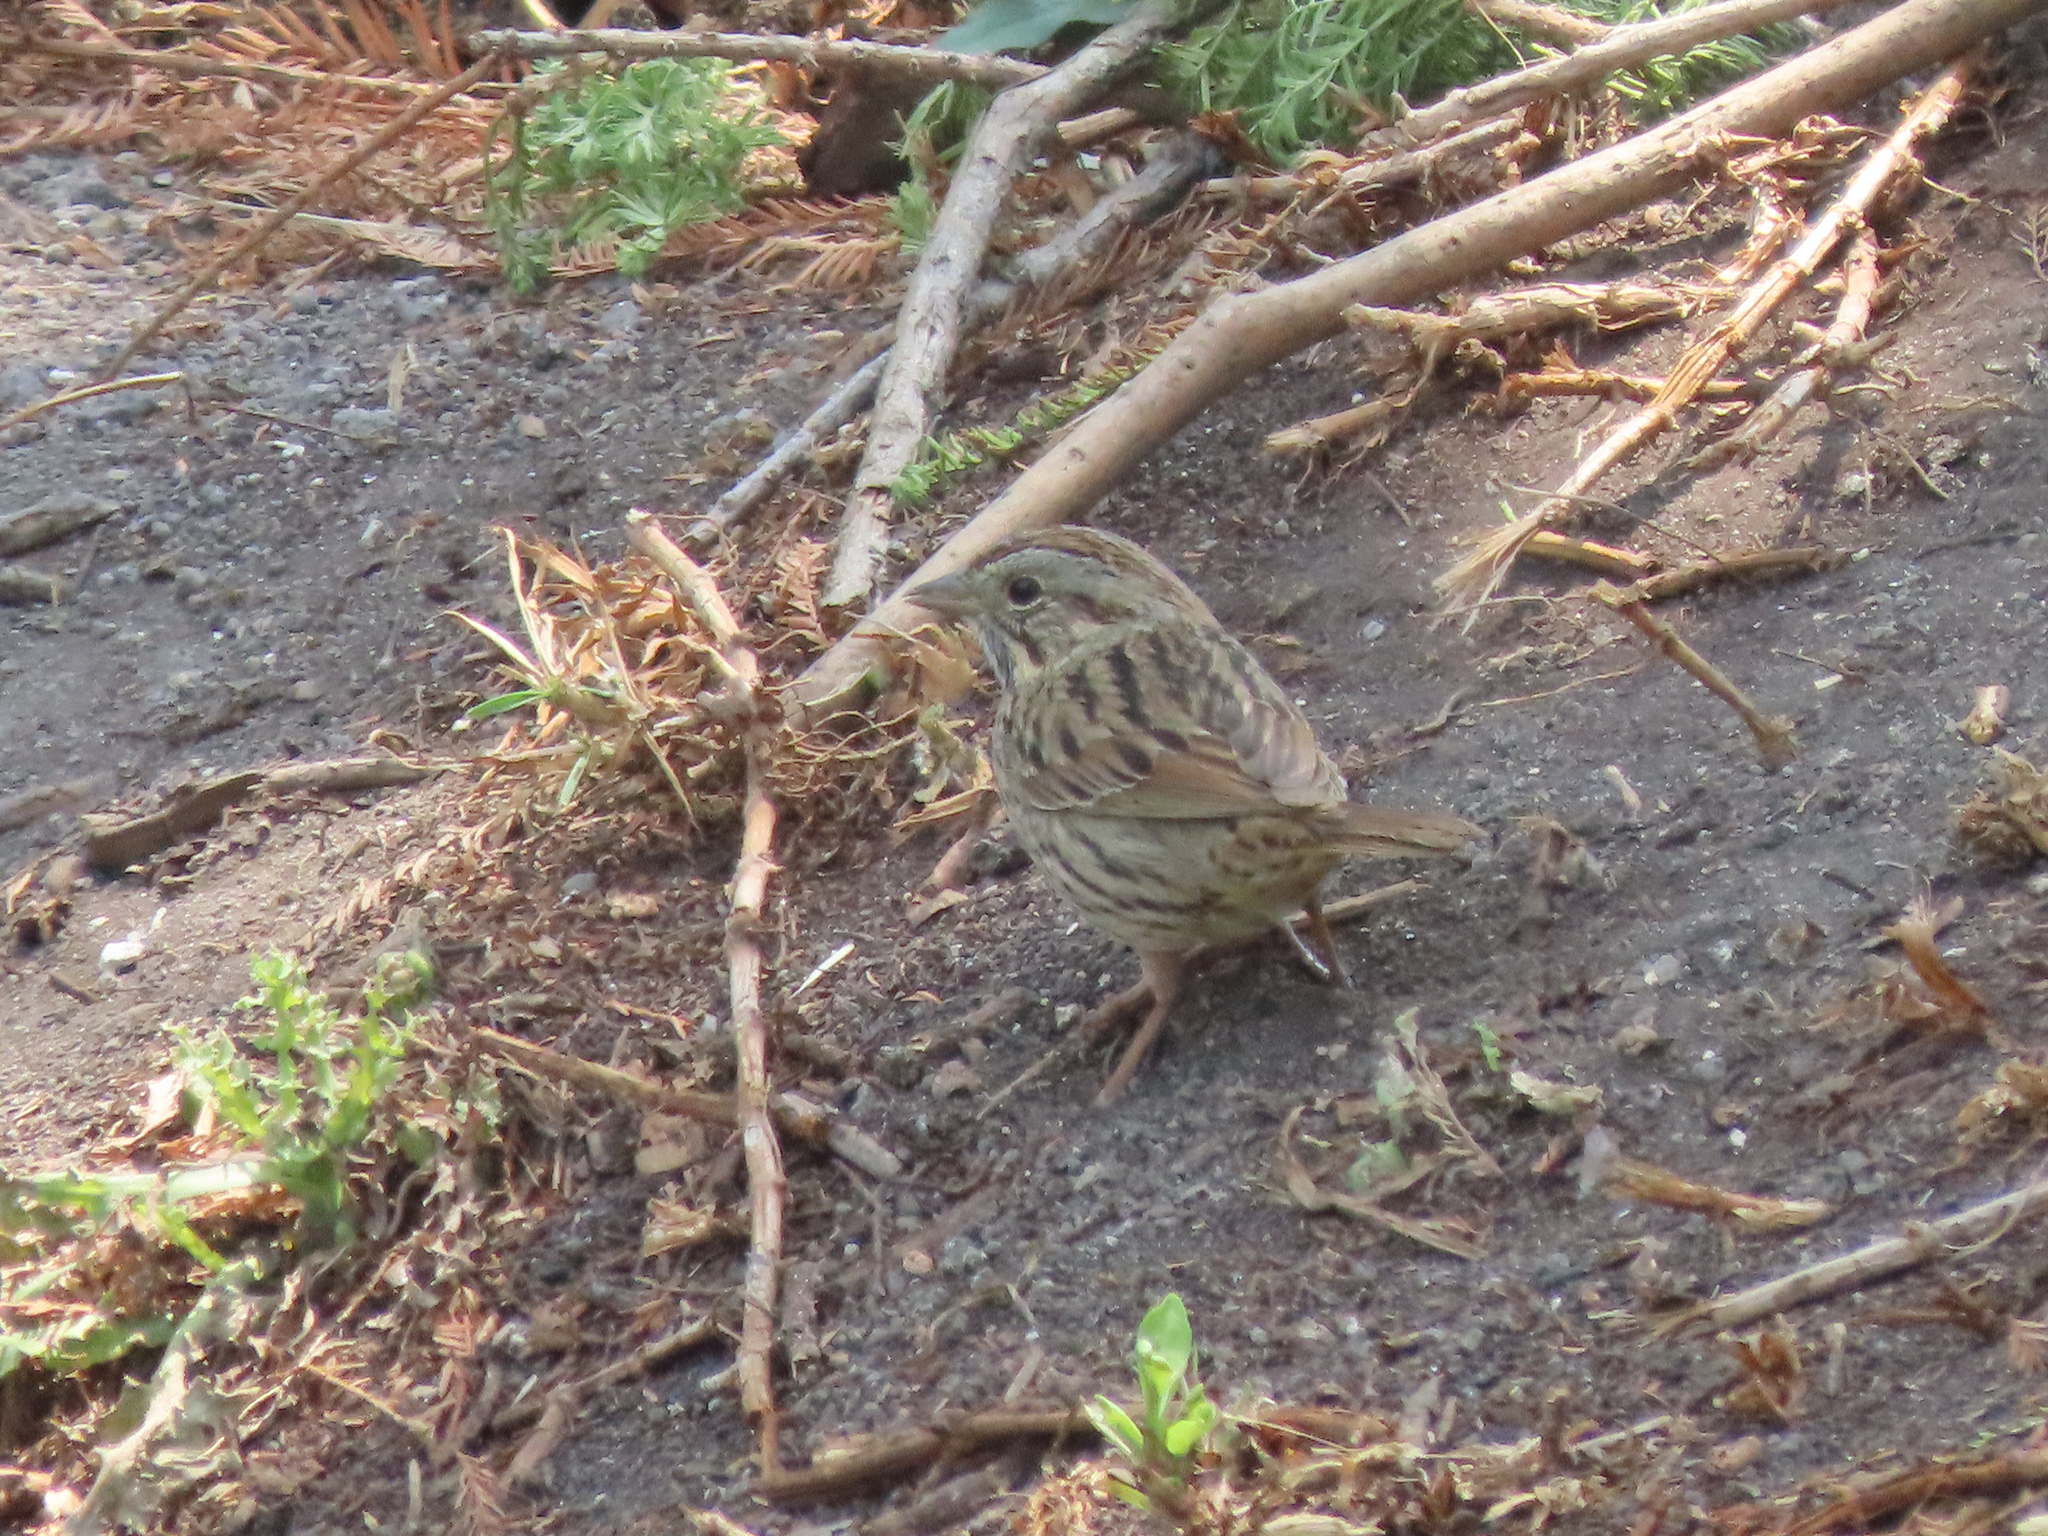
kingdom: Animalia
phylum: Chordata
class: Aves
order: Passeriformes
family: Passerellidae
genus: Melospiza
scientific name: Melospiza lincolnii
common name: Lincoln's sparrow
